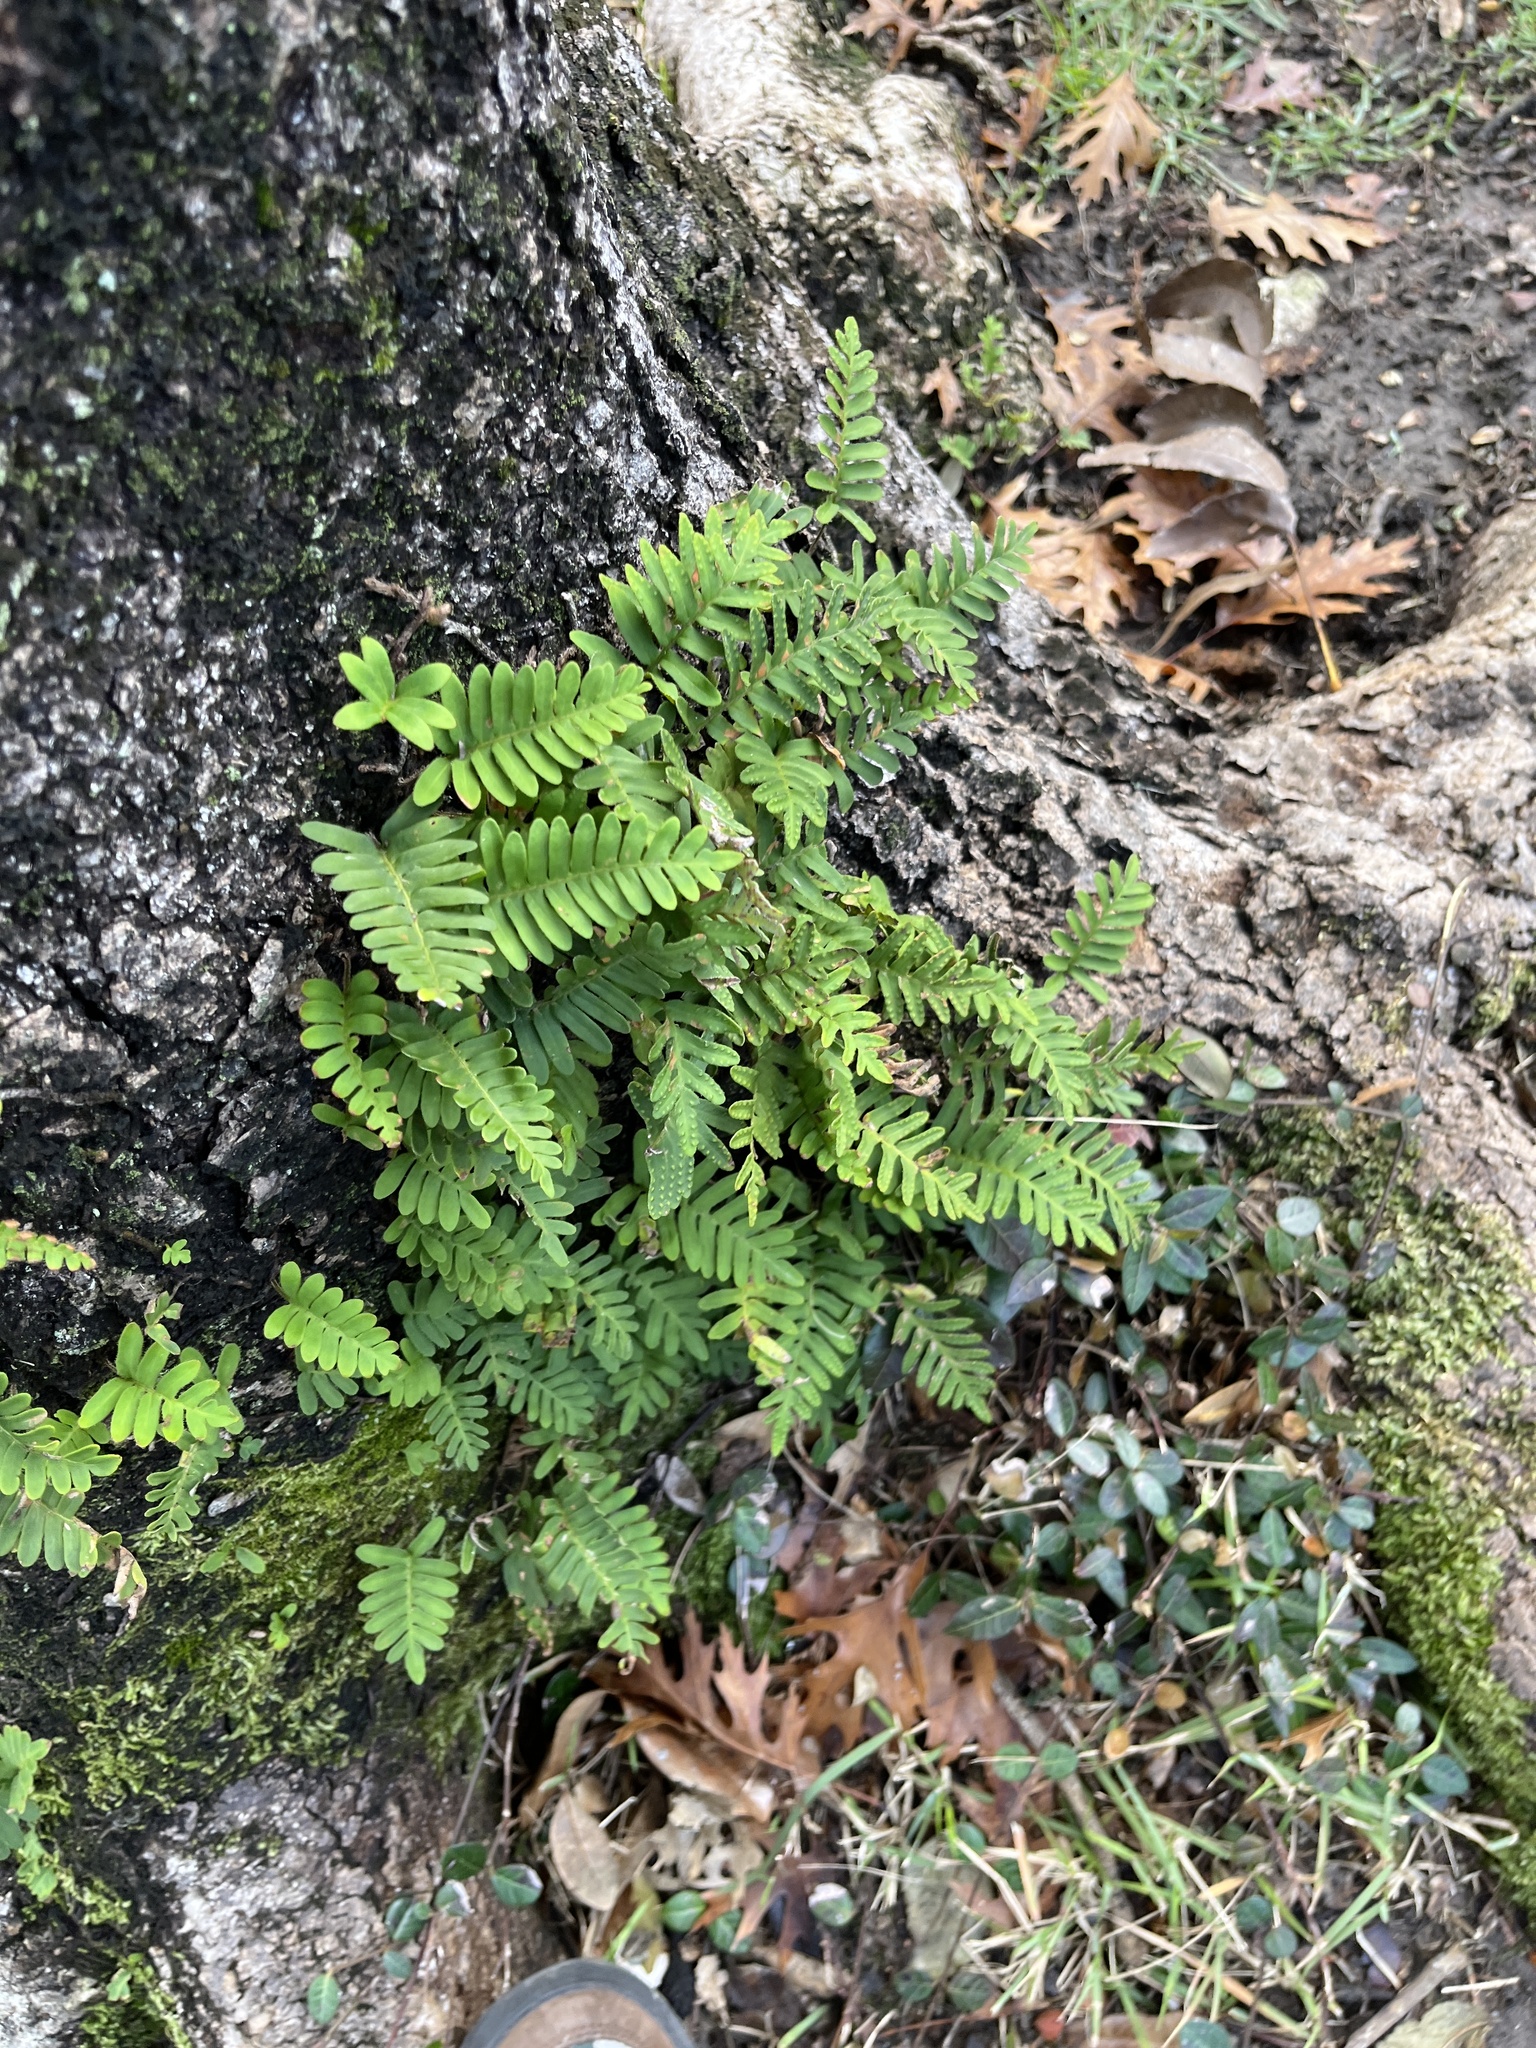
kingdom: Plantae
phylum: Tracheophyta
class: Polypodiopsida
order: Polypodiales
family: Polypodiaceae
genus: Pleopeltis
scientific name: Pleopeltis michauxiana
